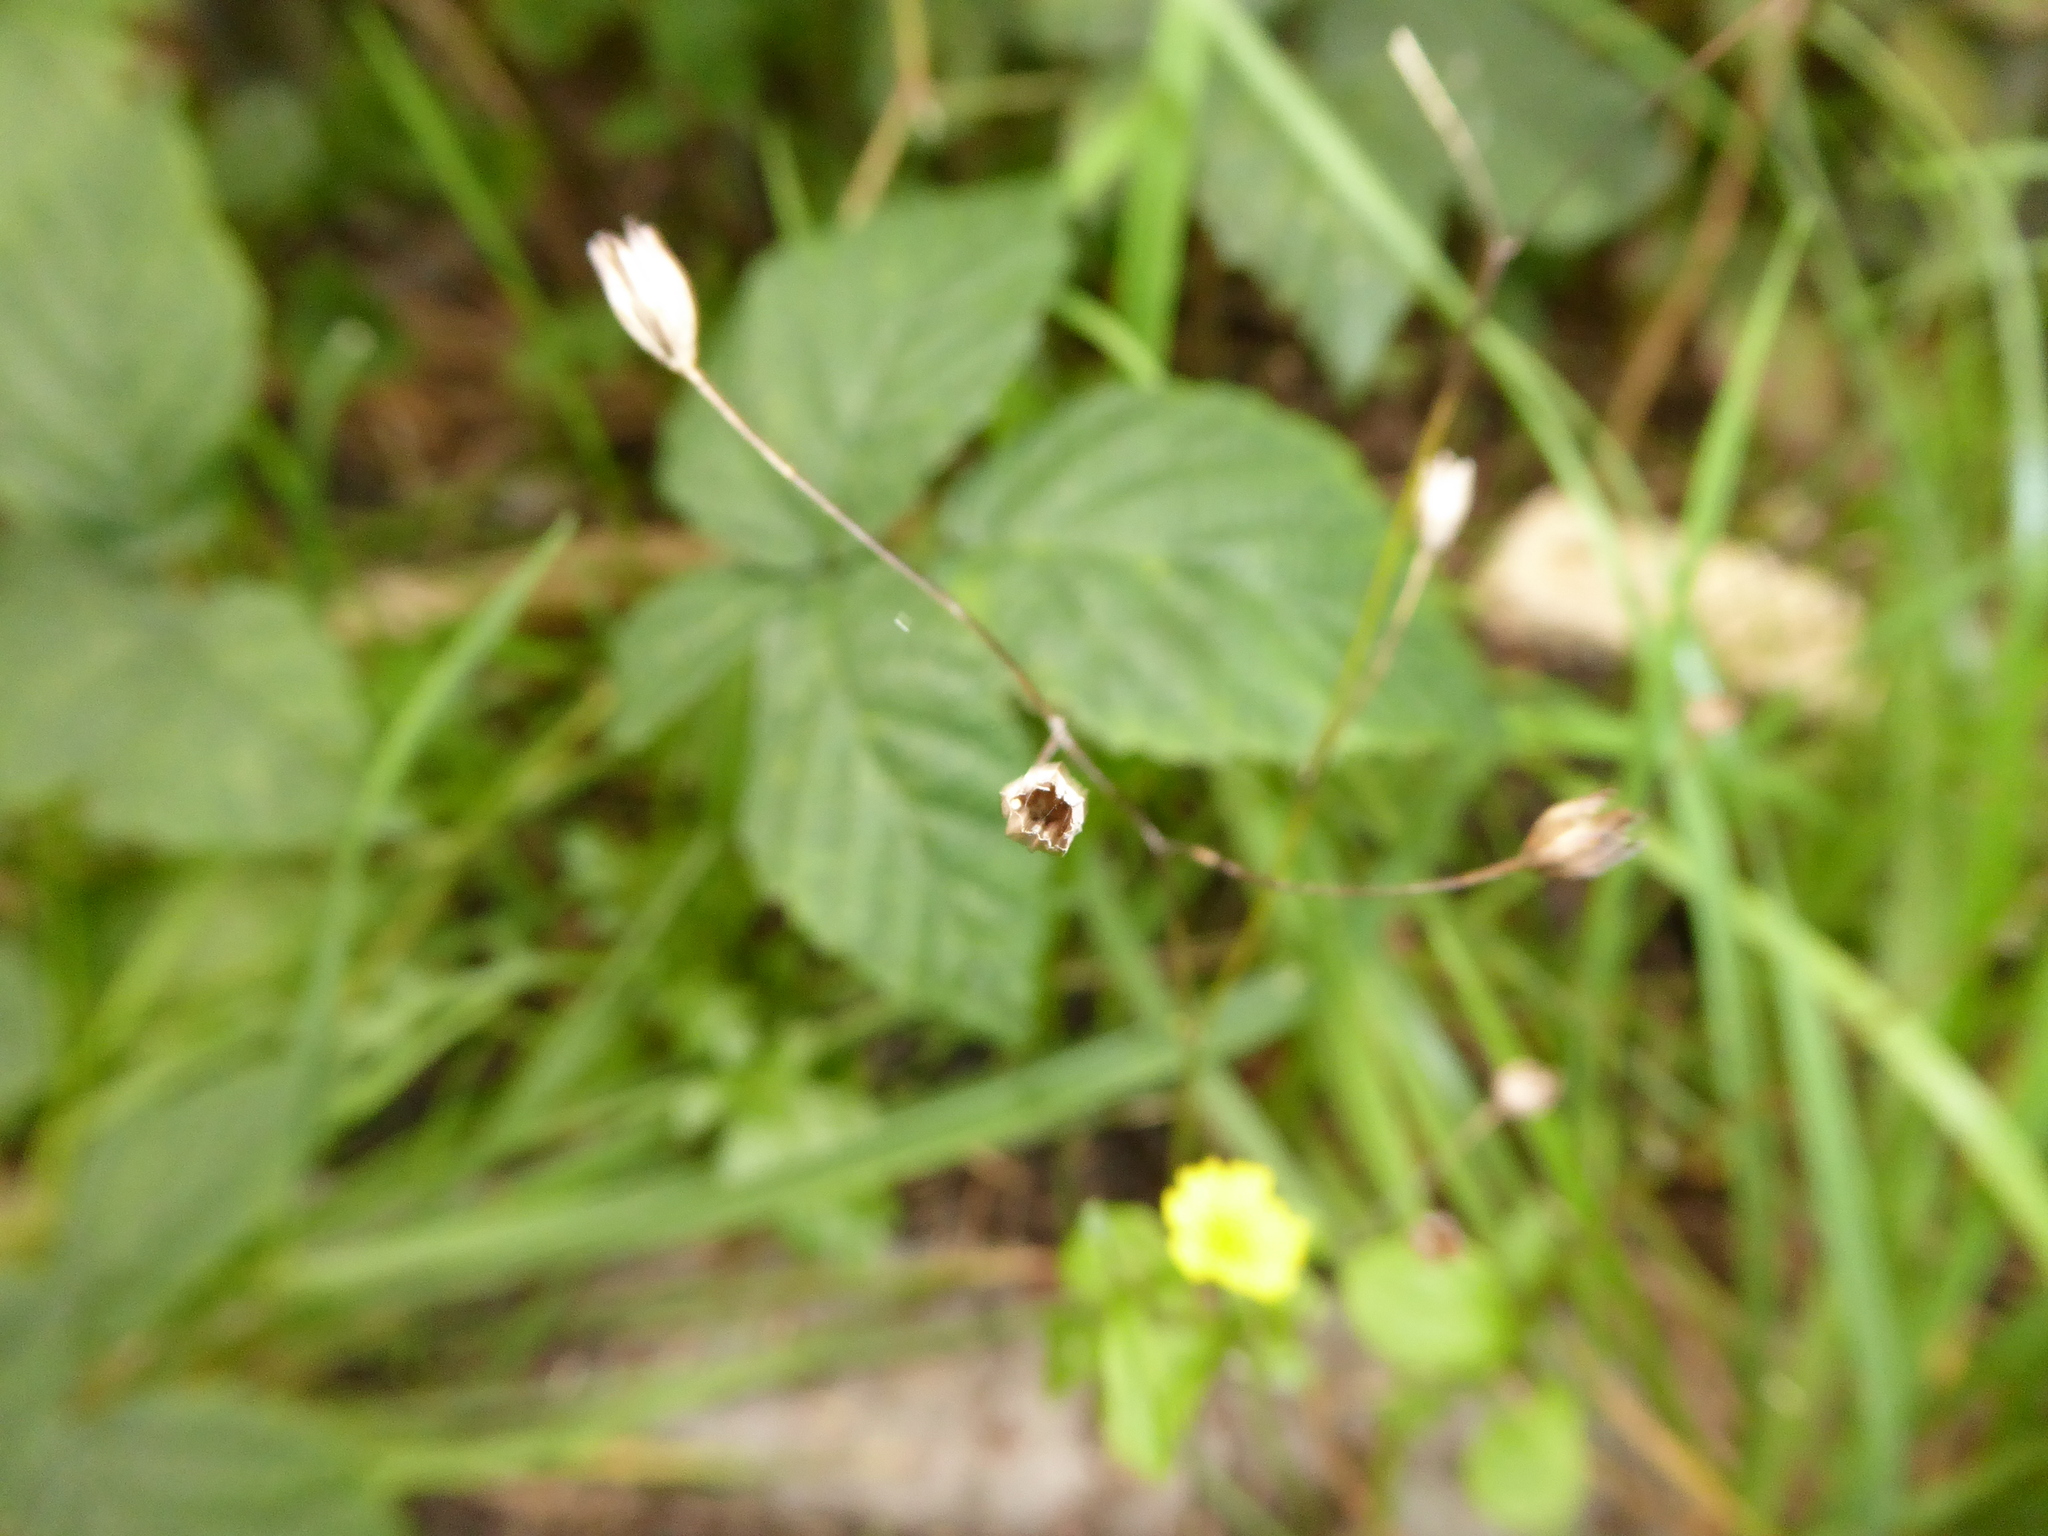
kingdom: Plantae
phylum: Tracheophyta
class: Magnoliopsida
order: Asterales
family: Asteraceae
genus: Lapsana
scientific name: Lapsana communis
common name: Nipplewort
